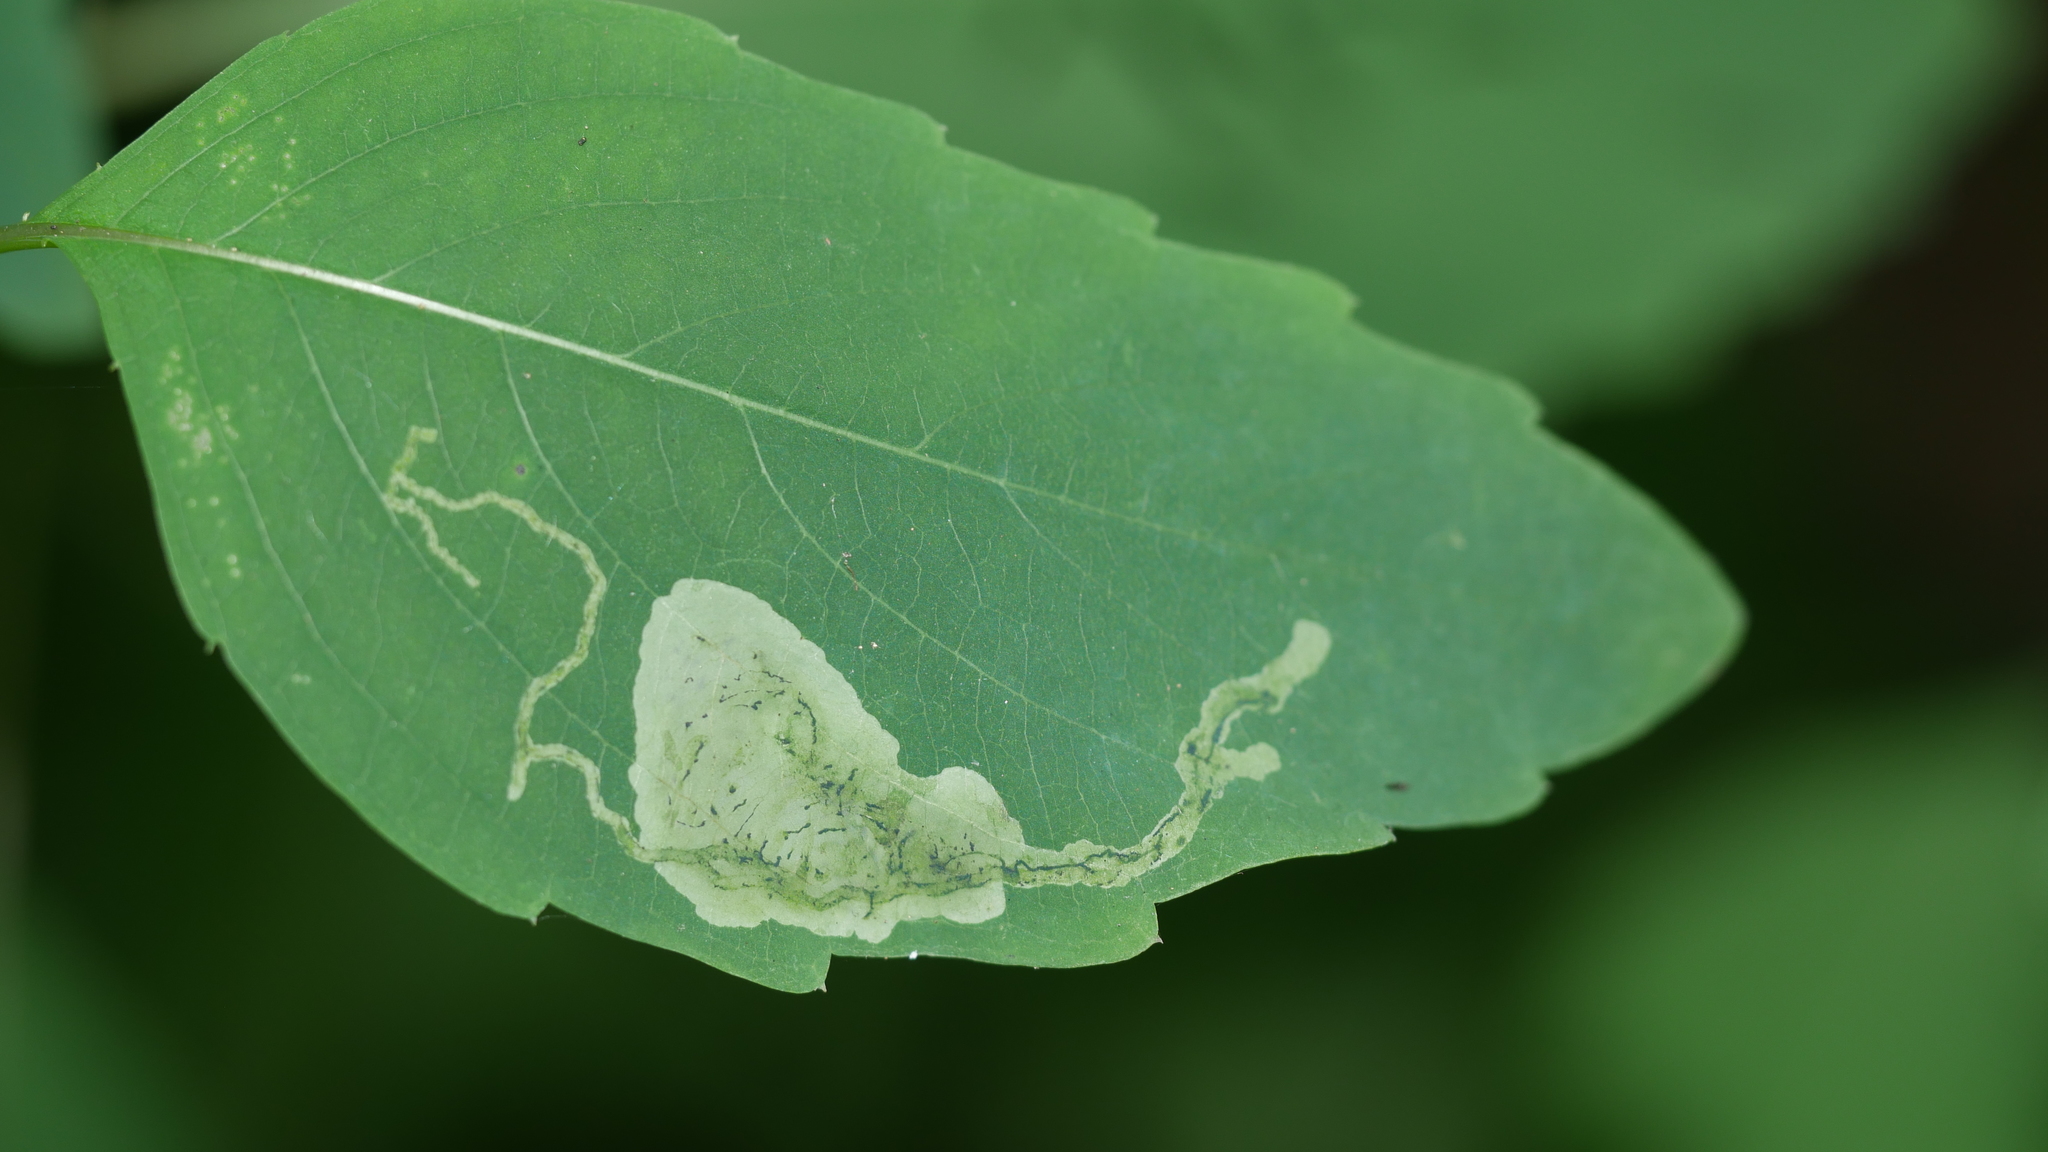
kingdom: Animalia
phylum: Arthropoda
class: Insecta
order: Diptera
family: Agromyzidae
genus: Phytoliriomyza
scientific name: Phytoliriomyza melampyga
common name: Jewelweed leaf-miner fly
